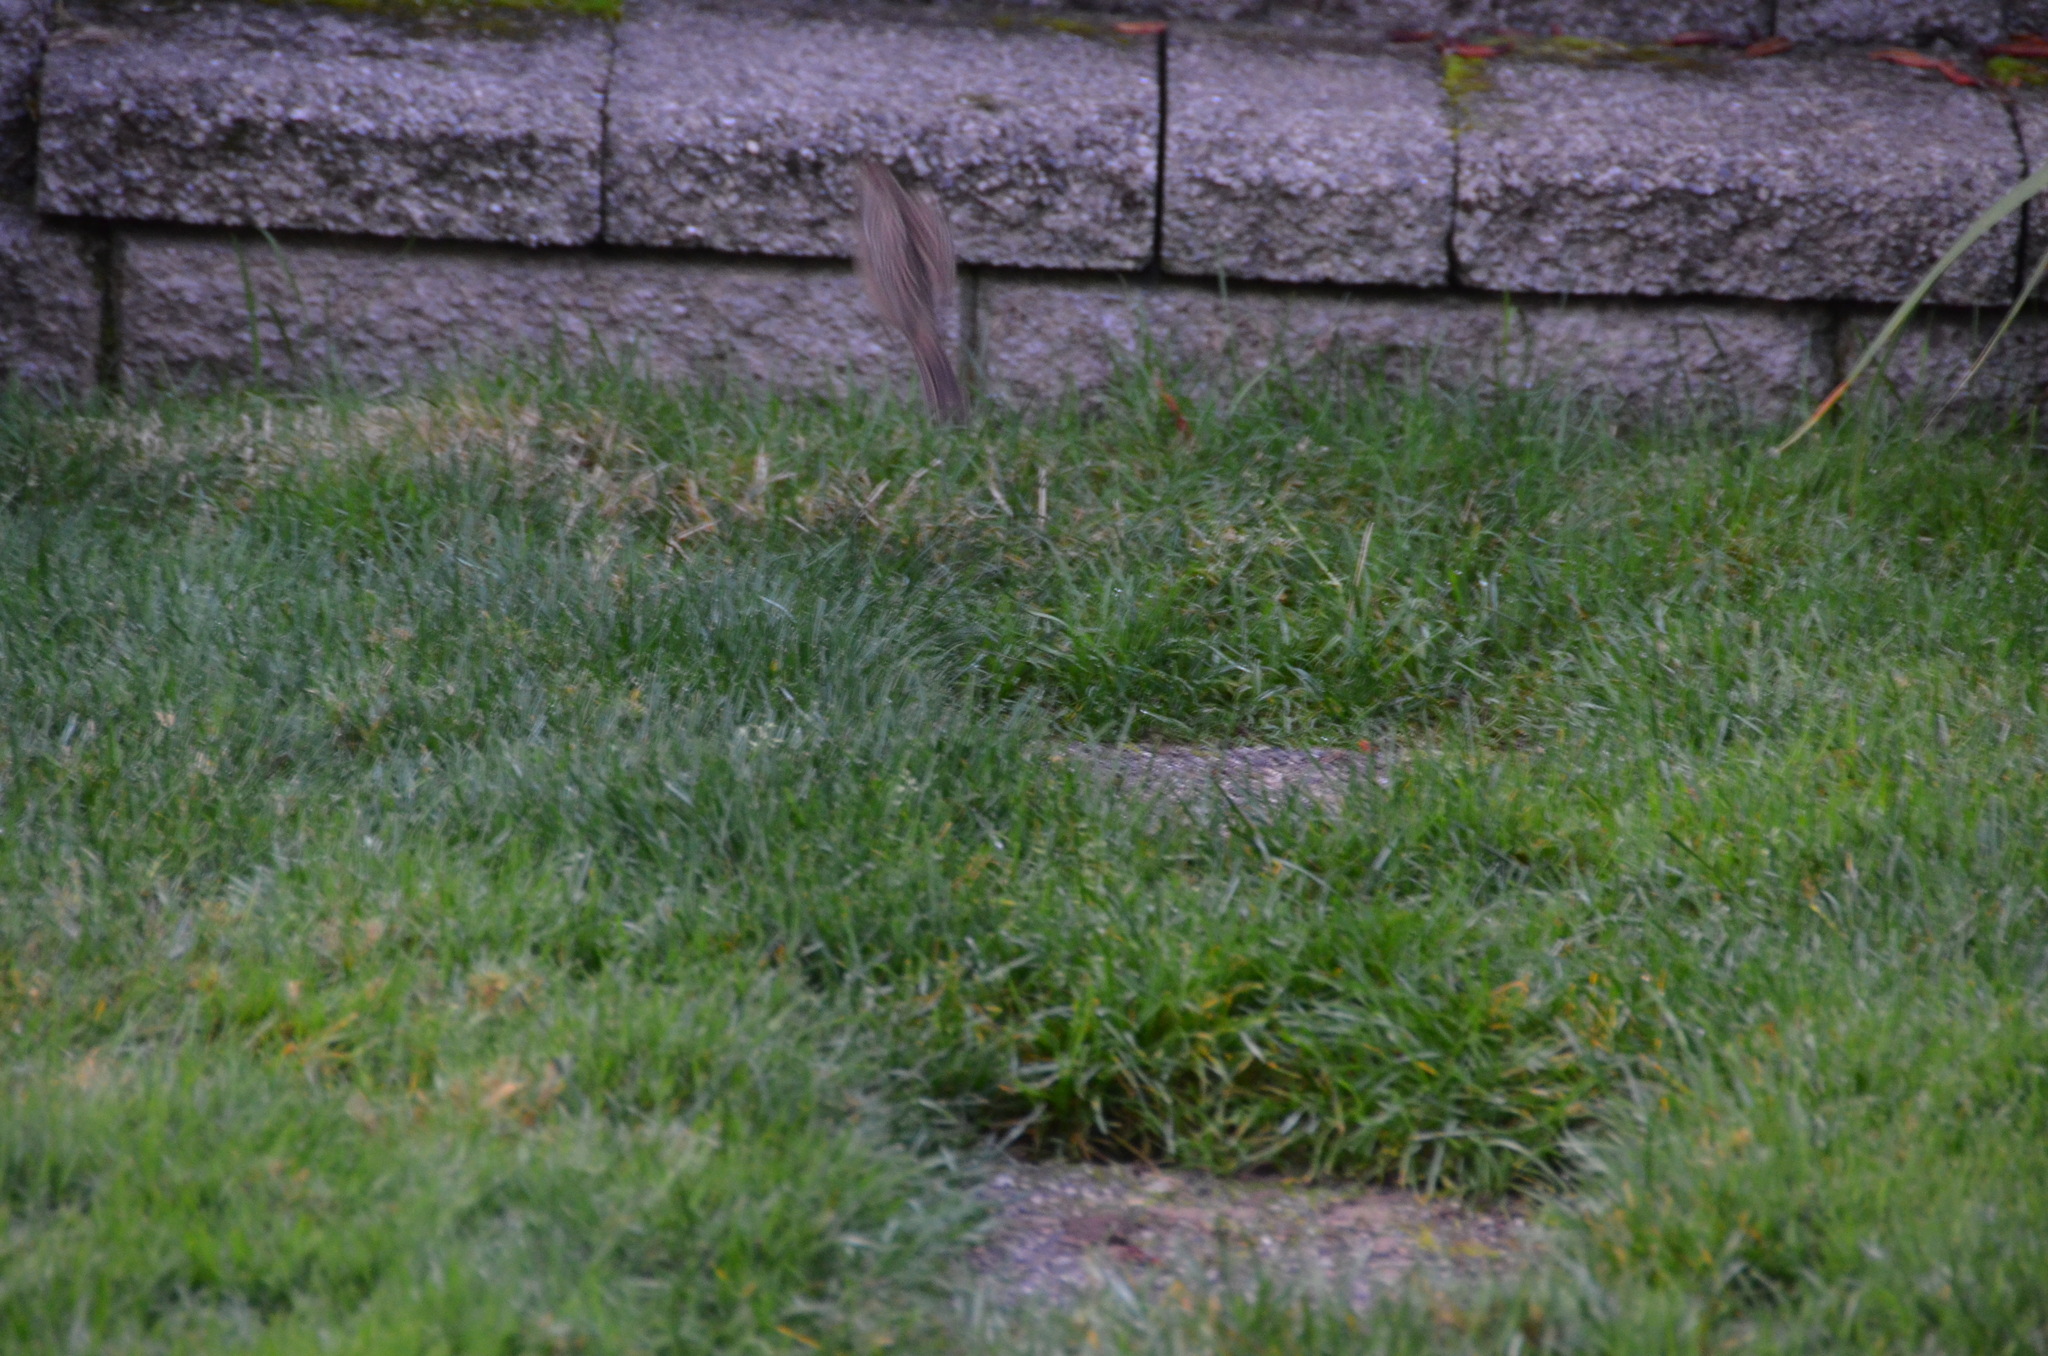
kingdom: Animalia
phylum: Chordata
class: Aves
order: Passeriformes
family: Passerellidae
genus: Zonotrichia
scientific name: Zonotrichia atricapilla
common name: Golden-crowned sparrow
